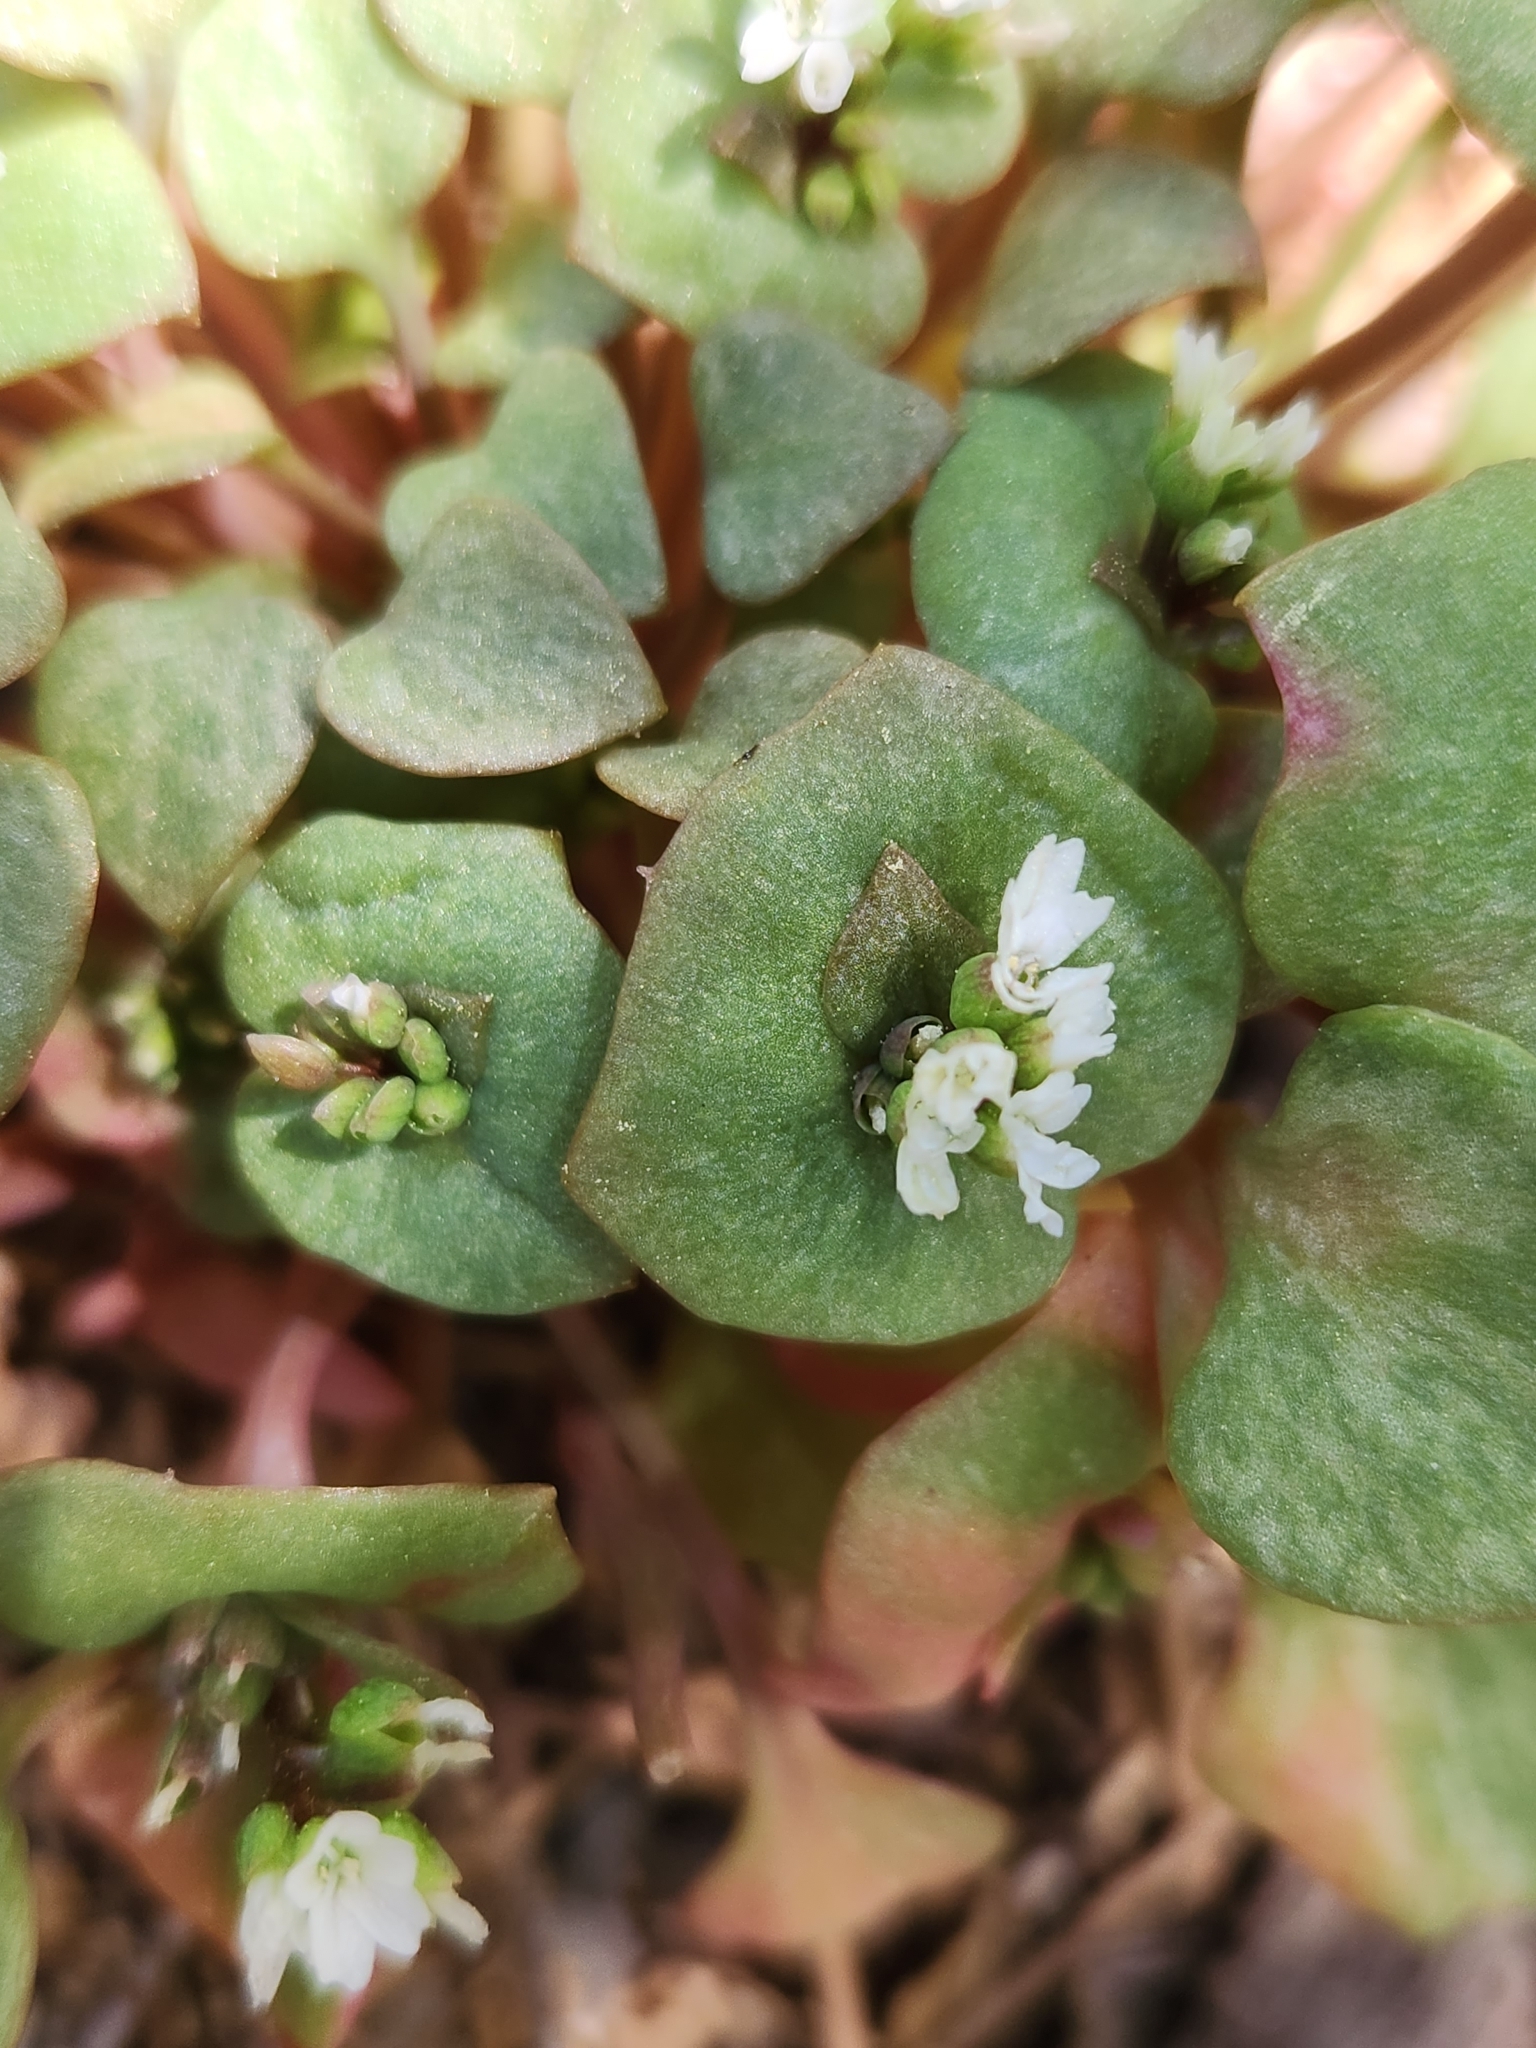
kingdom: Plantae
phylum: Tracheophyta
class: Magnoliopsida
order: Caryophyllales
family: Montiaceae
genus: Claytonia
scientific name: Claytonia rubra
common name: Erubescent miner's-lettuce
